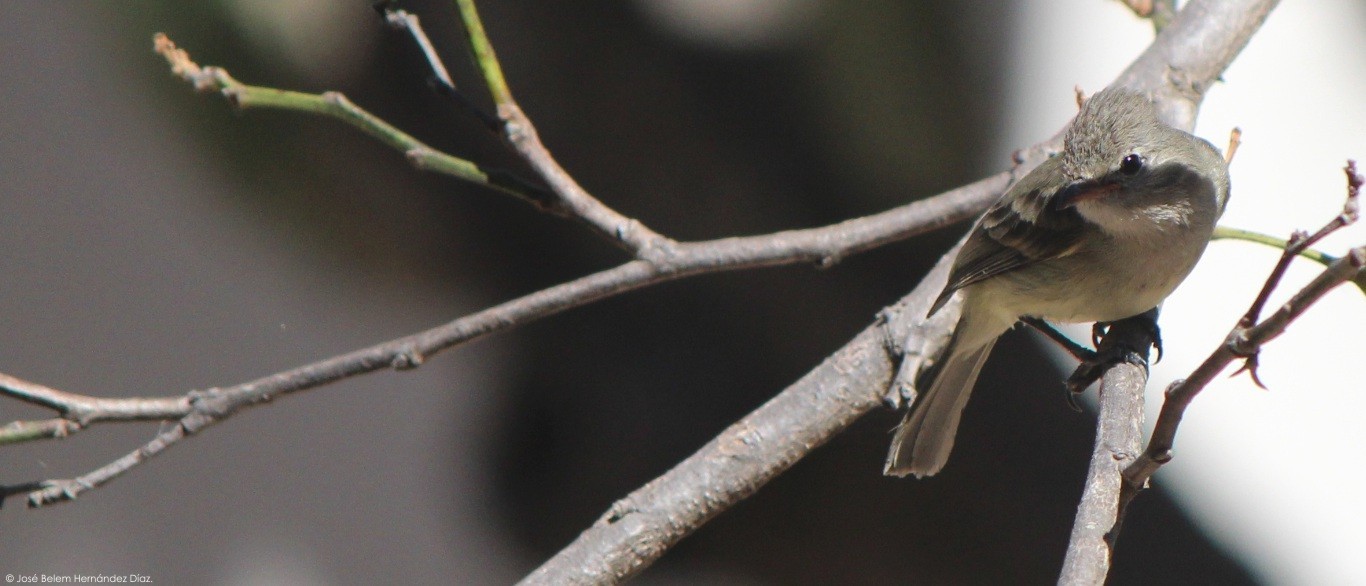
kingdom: Animalia
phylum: Chordata
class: Aves
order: Passeriformes
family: Tyrannidae
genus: Camptostoma
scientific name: Camptostoma imberbe
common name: Northern beardless-tyrannulet
